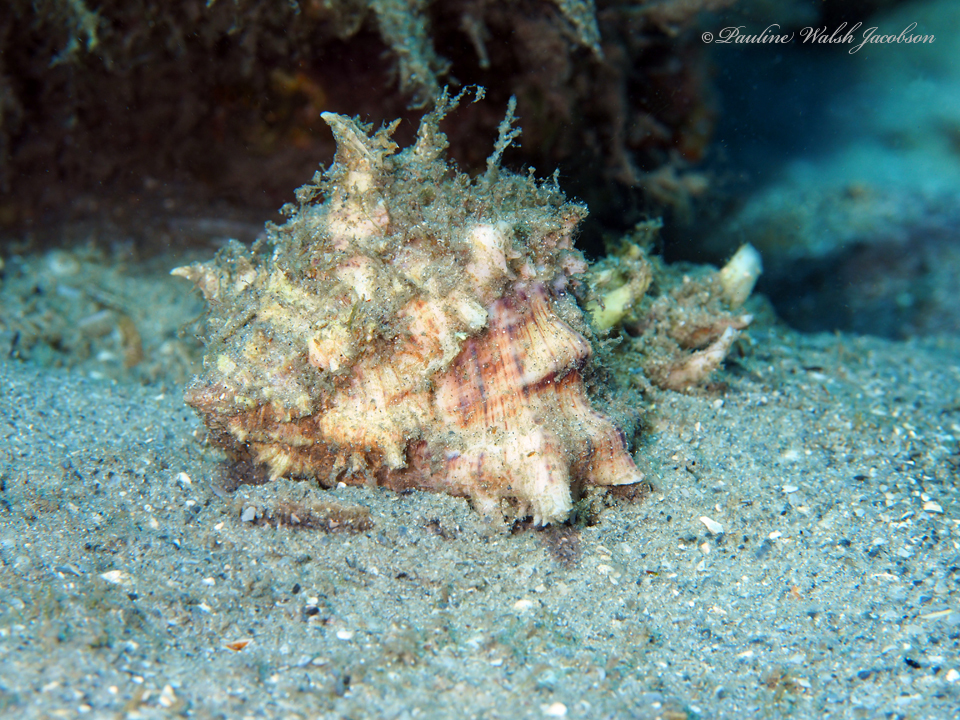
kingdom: Animalia
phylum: Mollusca
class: Gastropoda
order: Neogastropoda
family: Muricidae
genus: Hexaplex
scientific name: Hexaplex fulvescens
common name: Tawny murex
